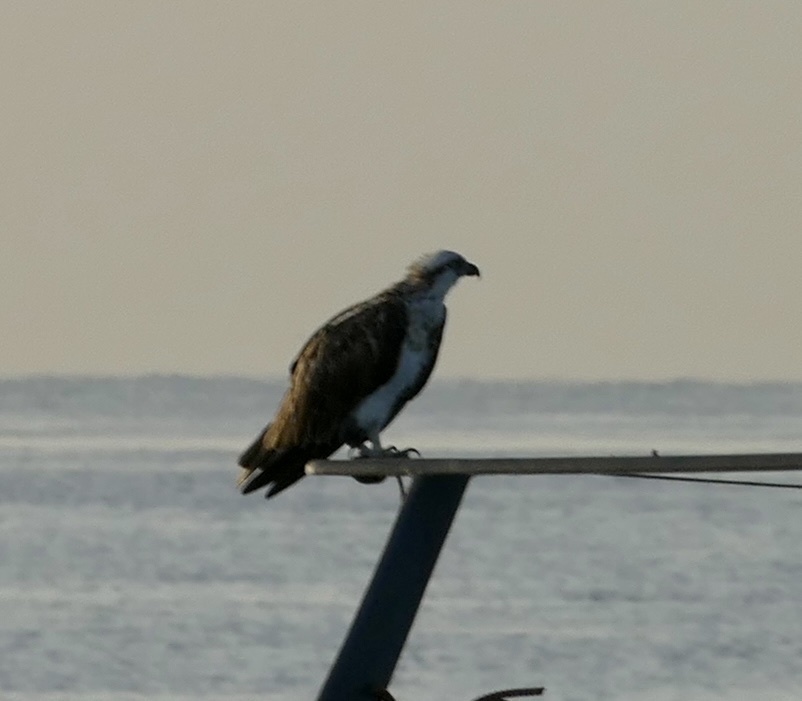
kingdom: Animalia
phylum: Chordata
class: Aves
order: Accipitriformes
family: Pandionidae
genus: Pandion
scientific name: Pandion haliaetus
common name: Osprey
